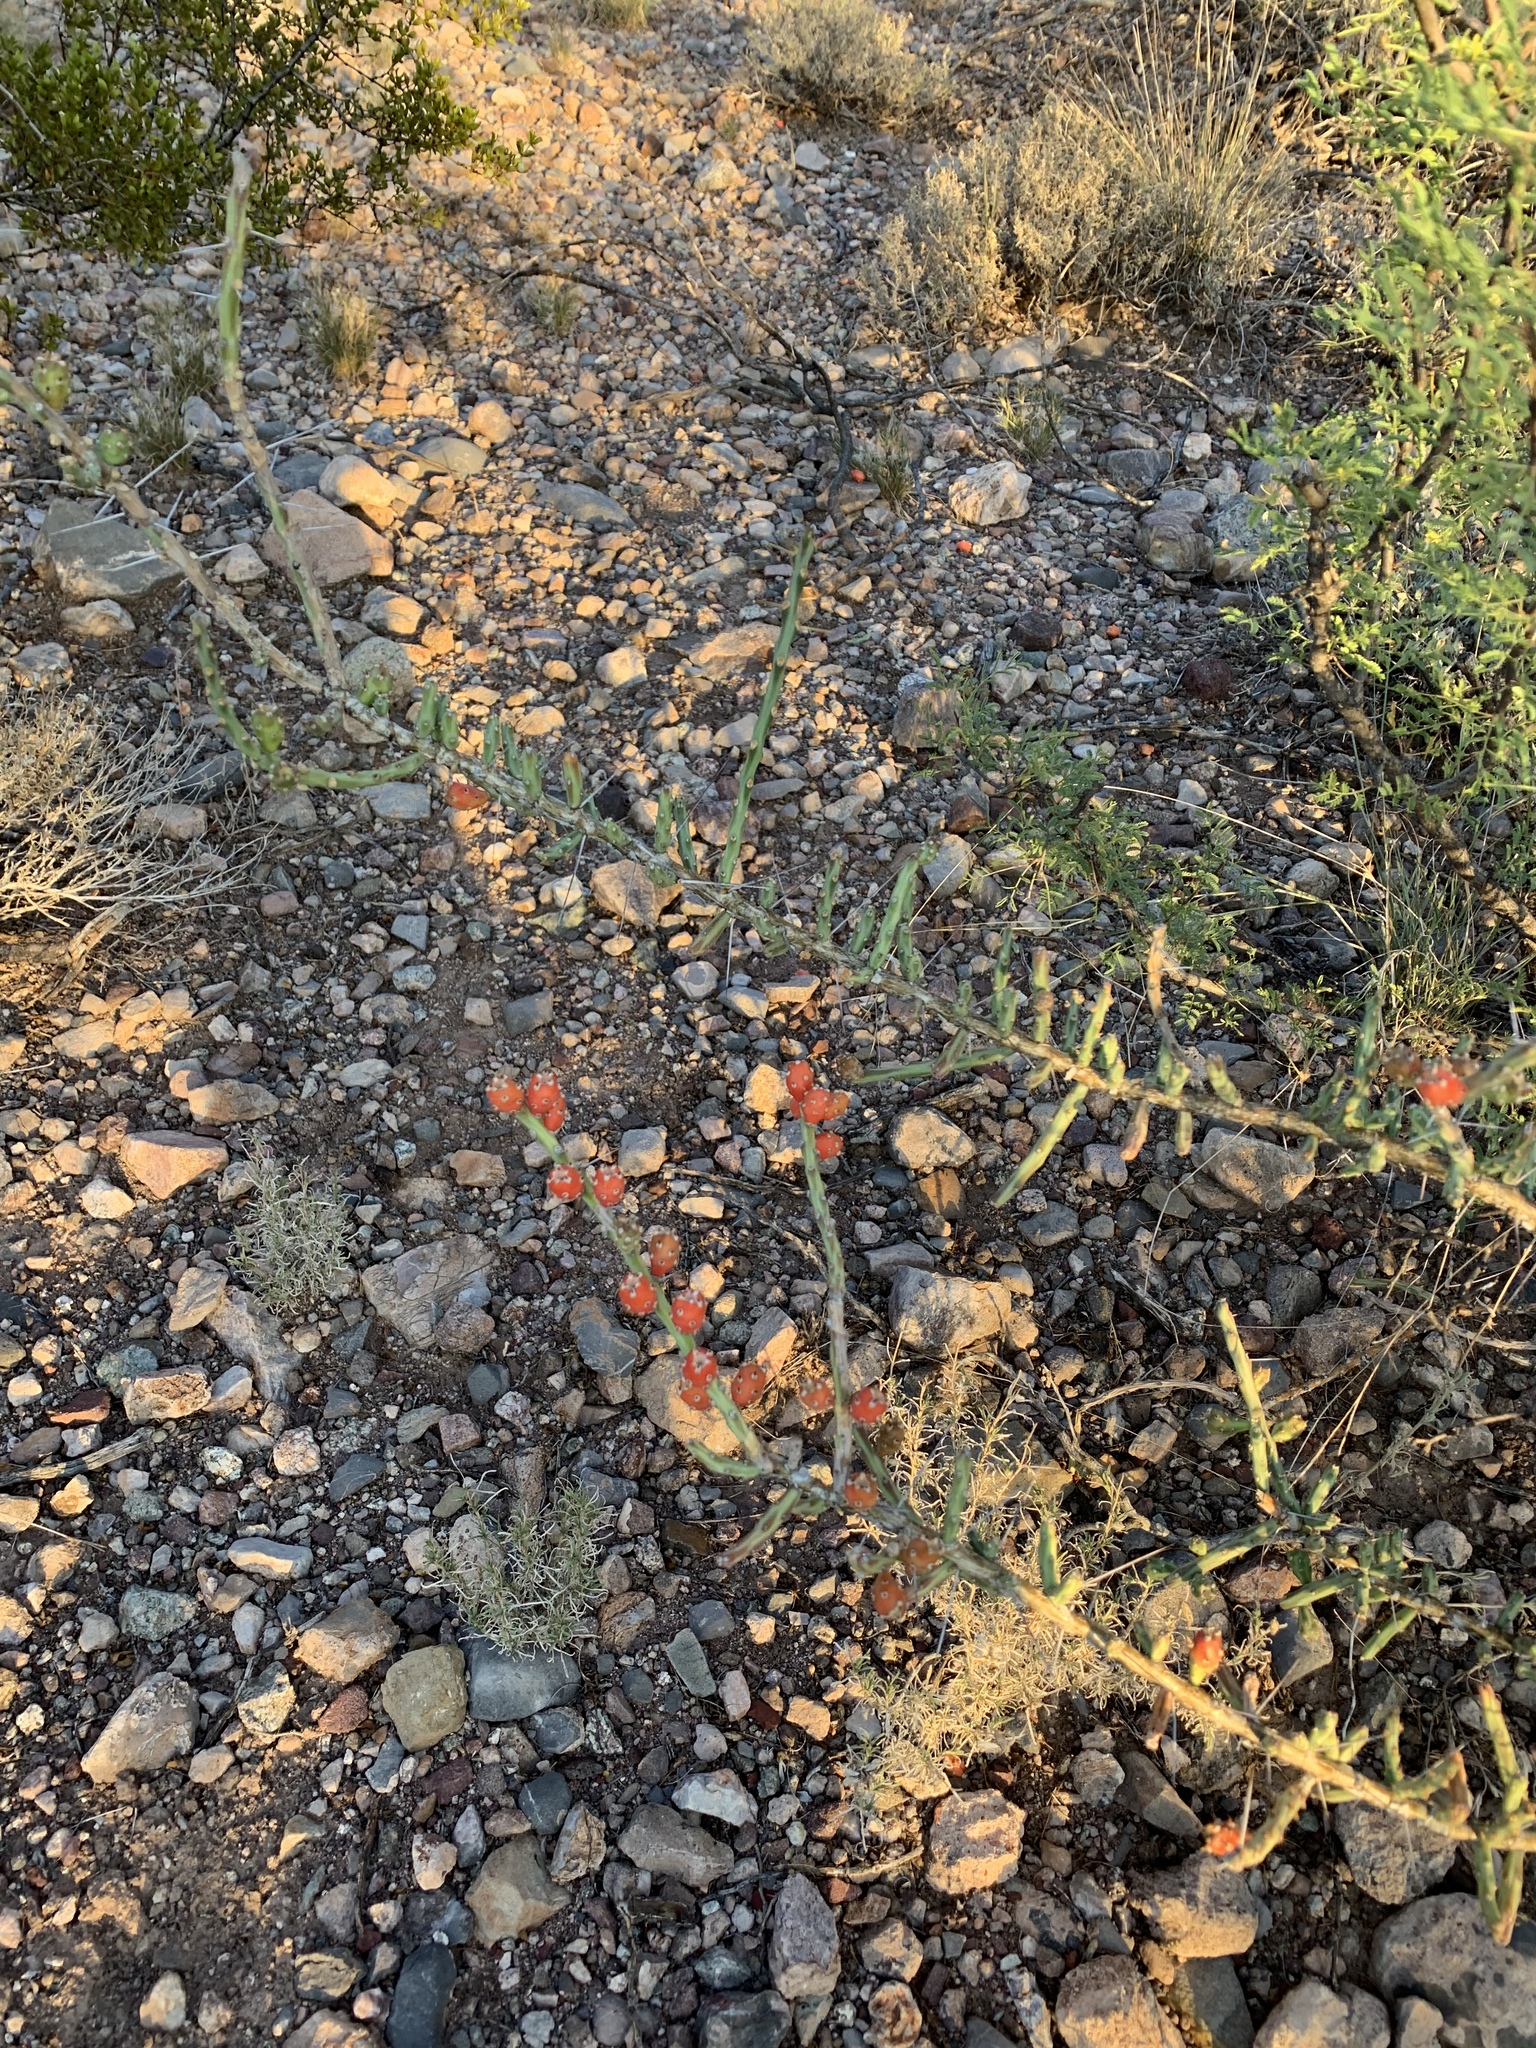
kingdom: Plantae
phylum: Tracheophyta
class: Magnoliopsida
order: Caryophyllales
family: Cactaceae
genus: Cylindropuntia
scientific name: Cylindropuntia leptocaulis
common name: Christmas cactus
